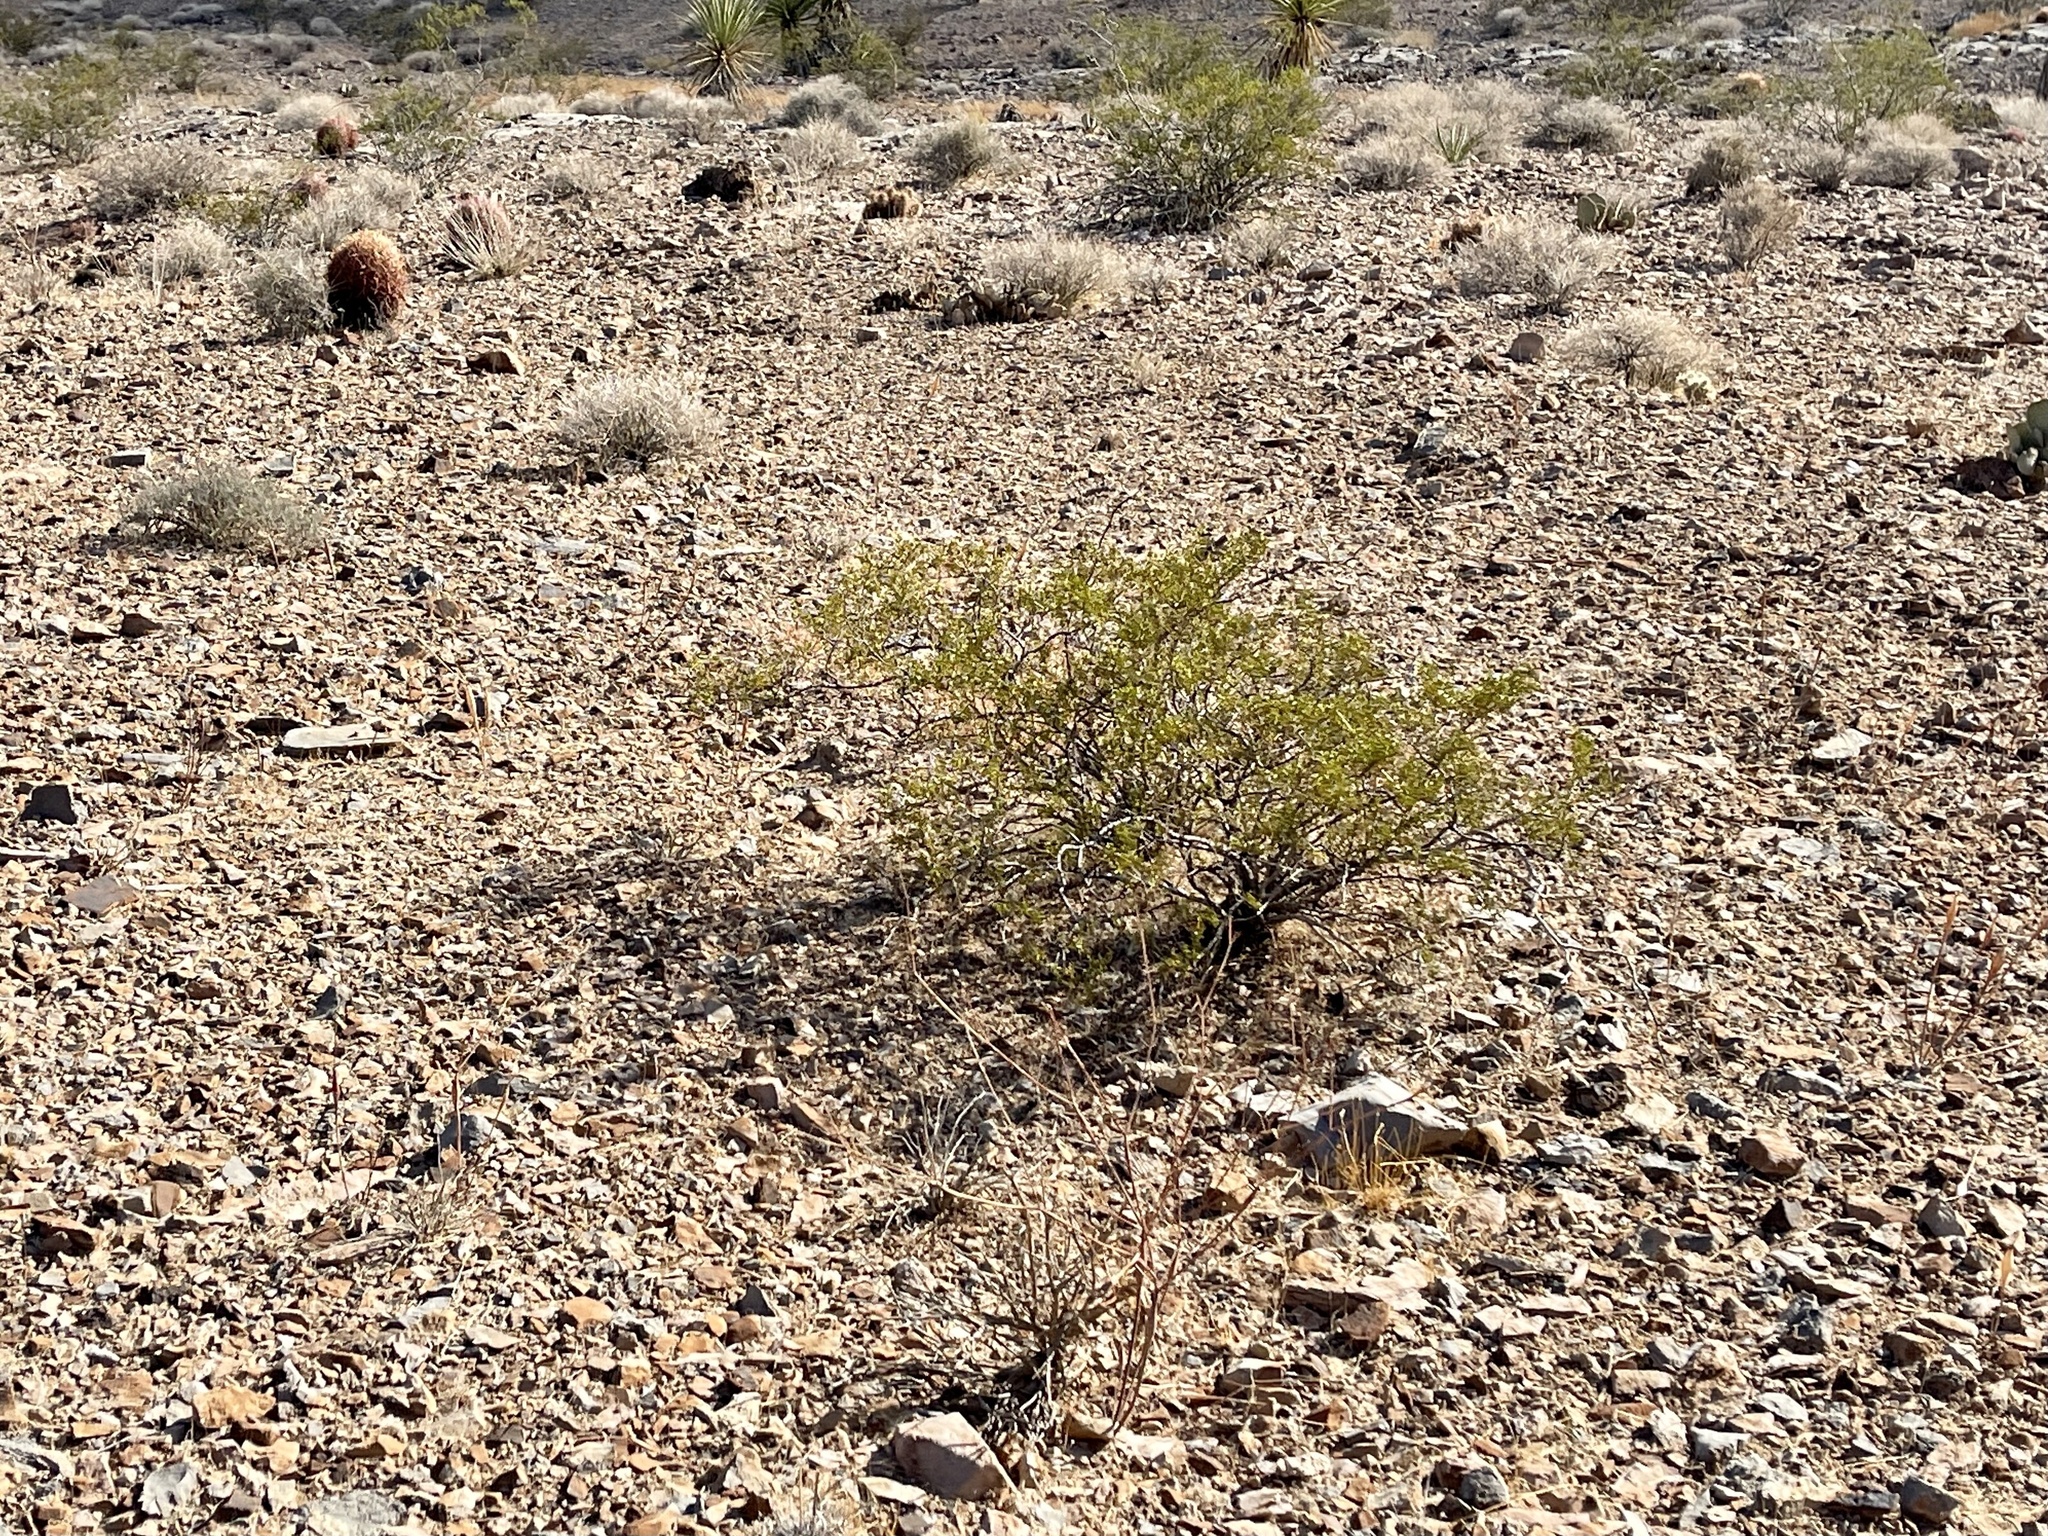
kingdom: Plantae
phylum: Tracheophyta
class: Magnoliopsida
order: Zygophyllales
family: Zygophyllaceae
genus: Larrea
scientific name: Larrea tridentata
